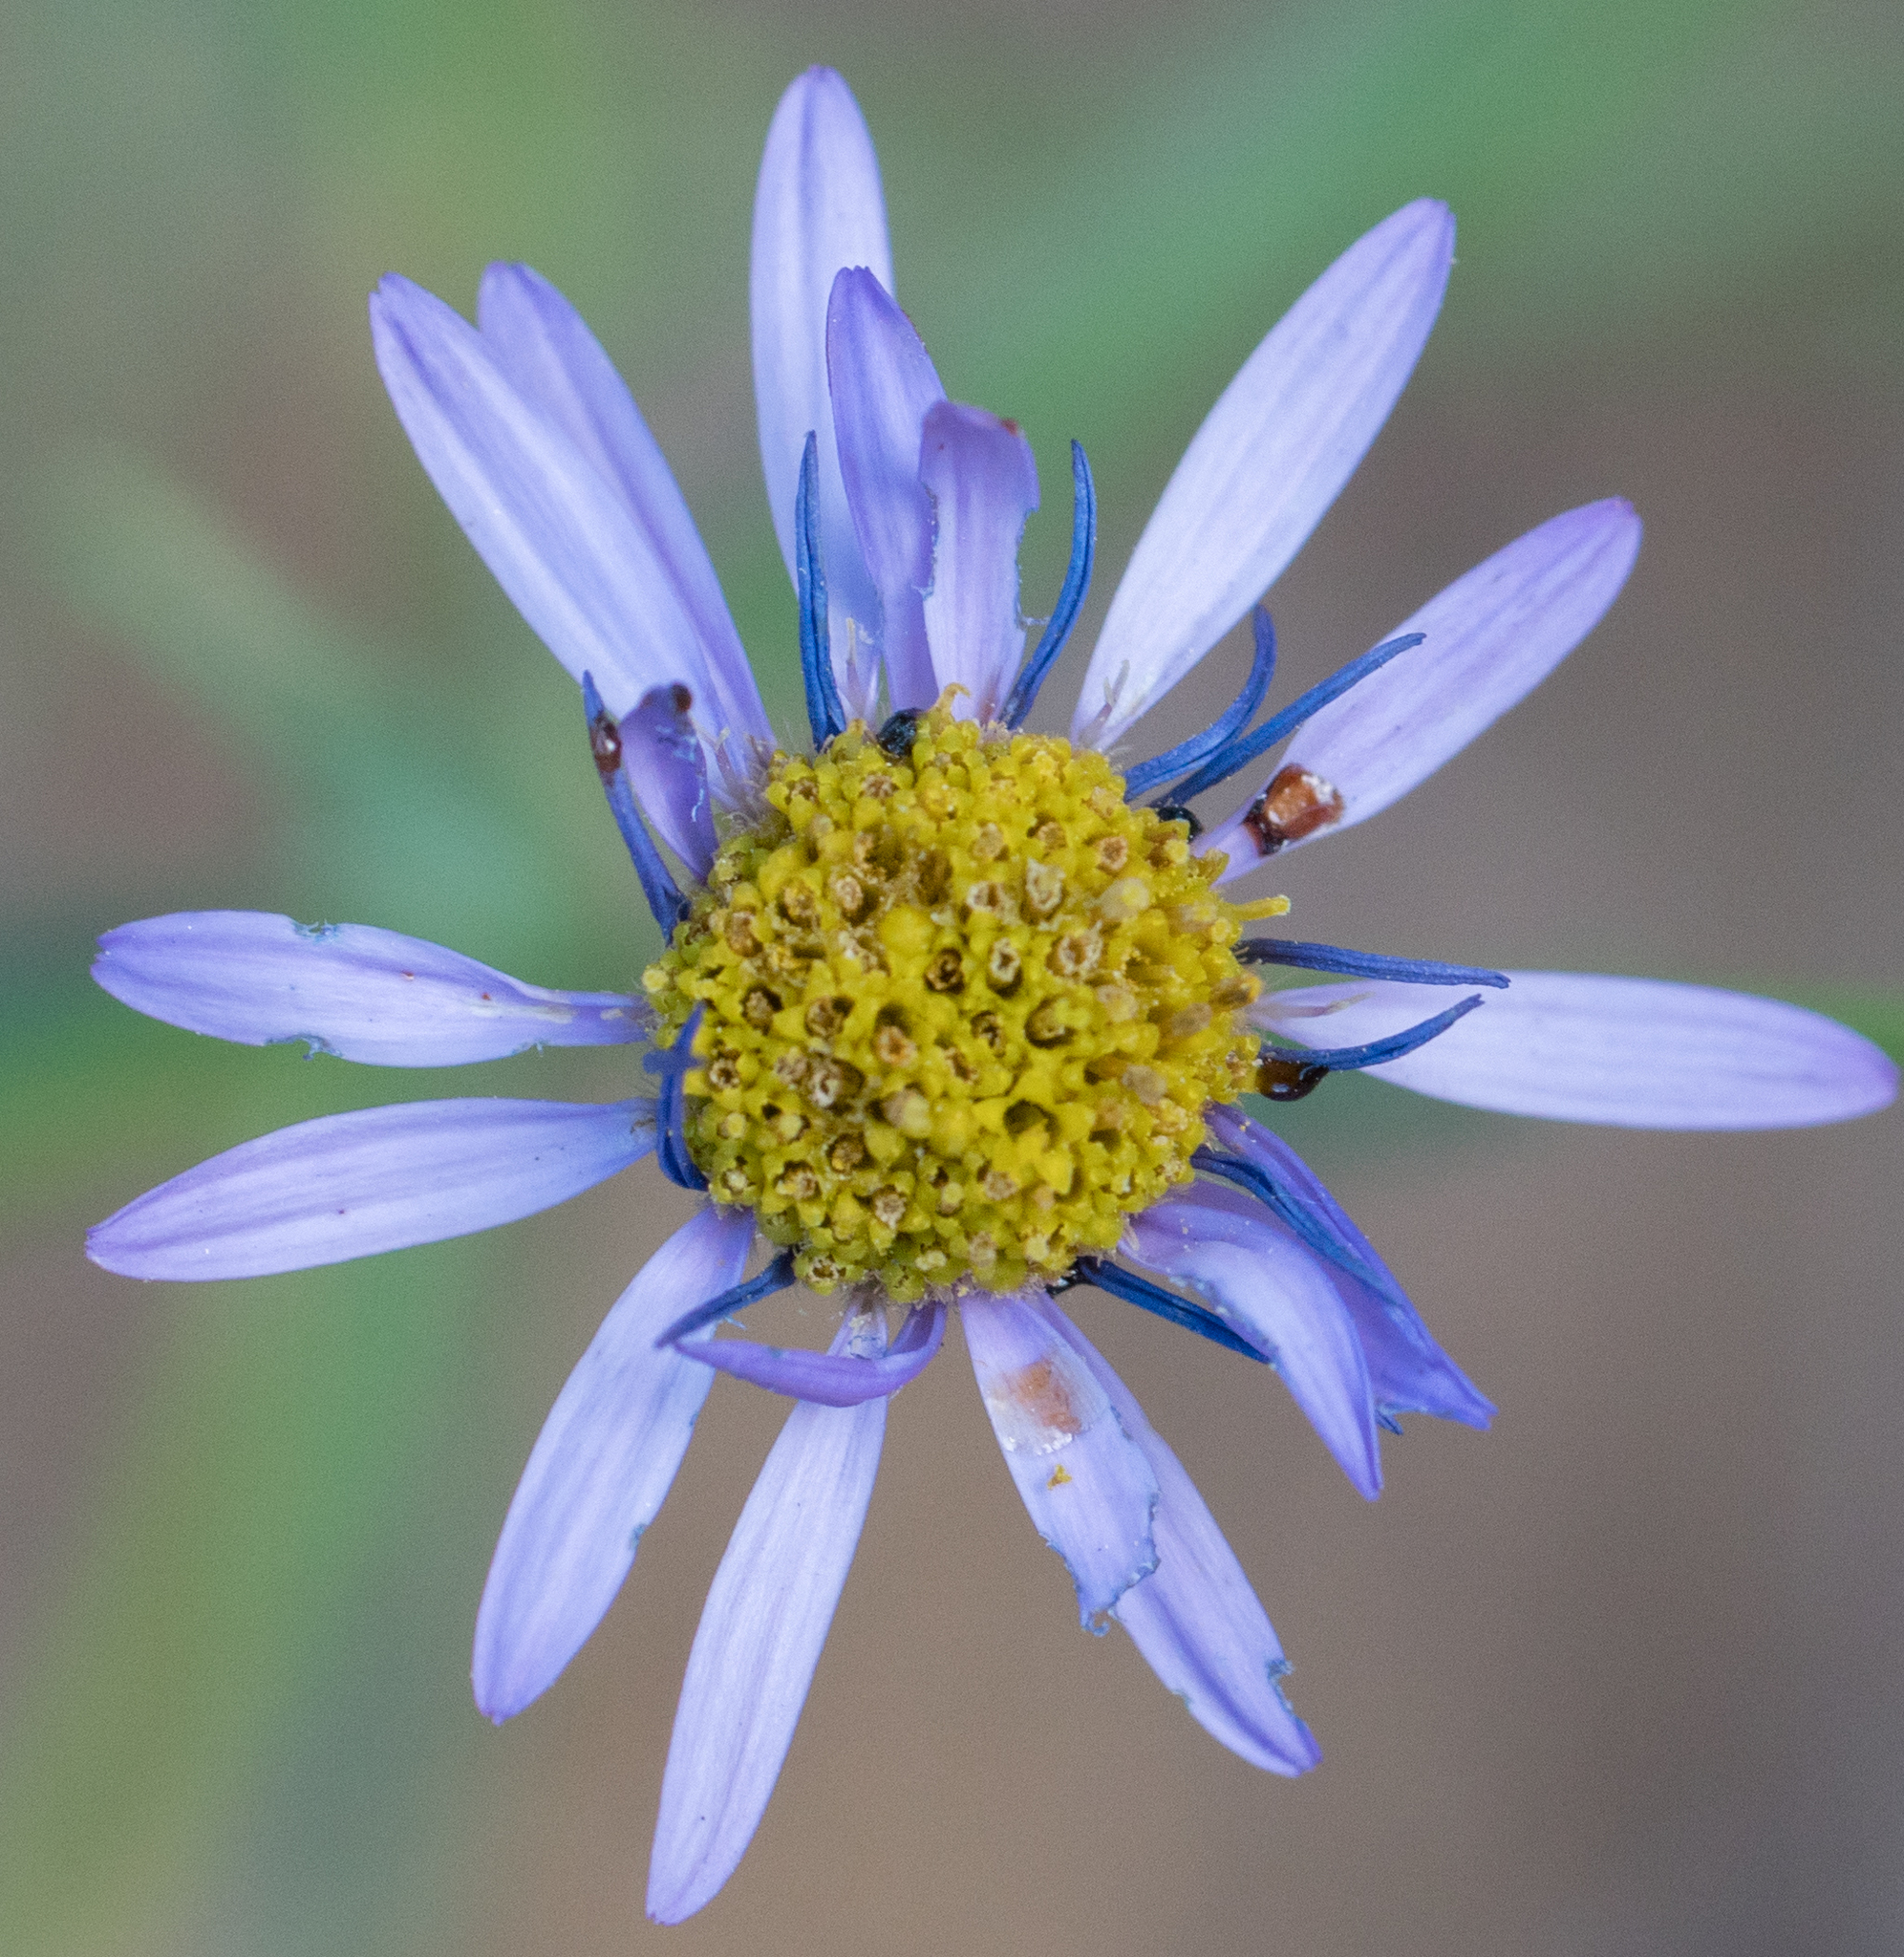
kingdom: Plantae
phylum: Tracheophyta
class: Magnoliopsida
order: Asterales
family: Asteraceae
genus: Erigeron
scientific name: Erigeron foliosus
